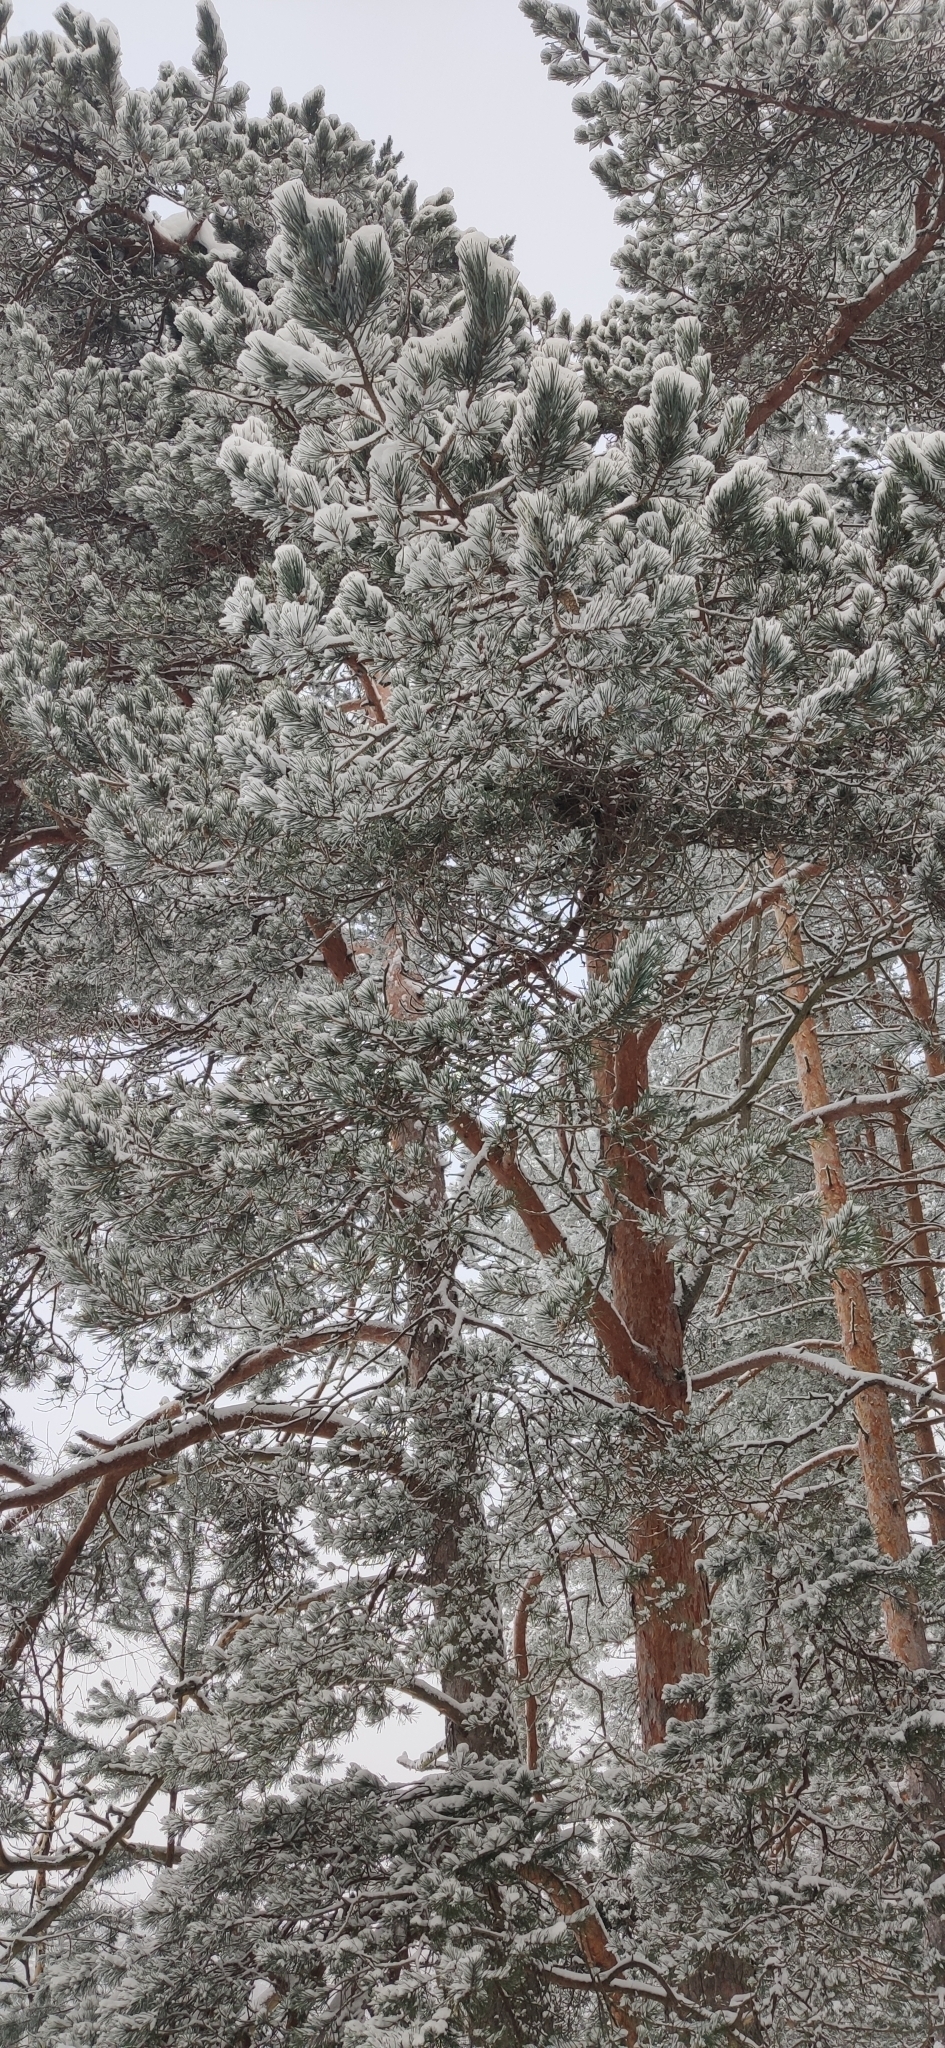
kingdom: Plantae
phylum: Tracheophyta
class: Pinopsida
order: Pinales
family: Pinaceae
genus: Pinus
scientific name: Pinus sylvestris
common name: Scots pine
